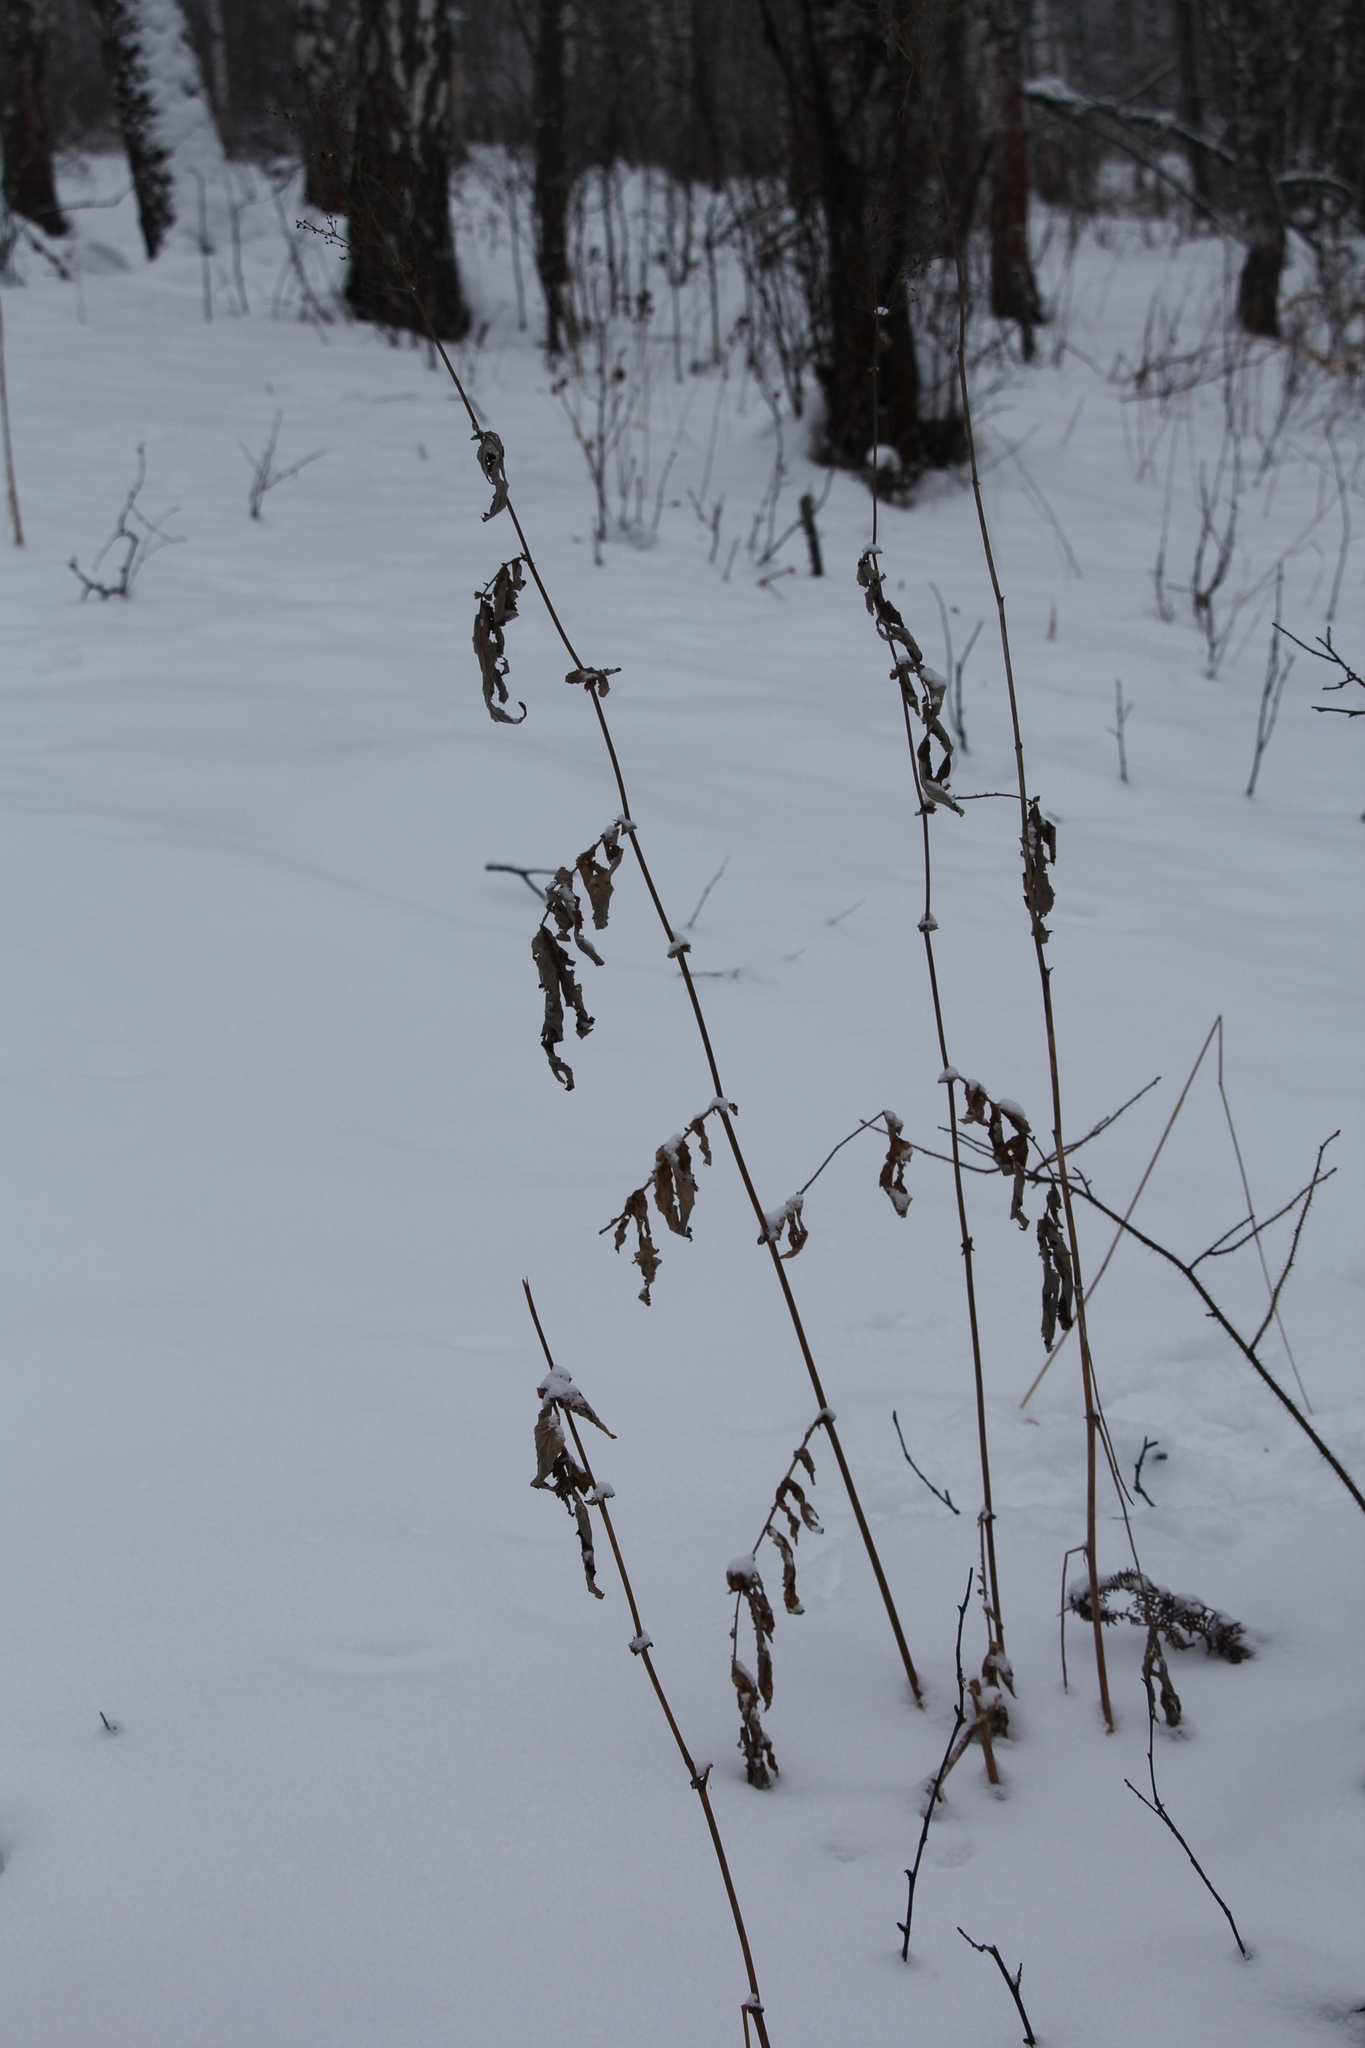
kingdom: Plantae
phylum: Tracheophyta
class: Magnoliopsida
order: Rosales
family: Rosaceae
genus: Filipendula
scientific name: Filipendula ulmaria
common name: Meadowsweet
